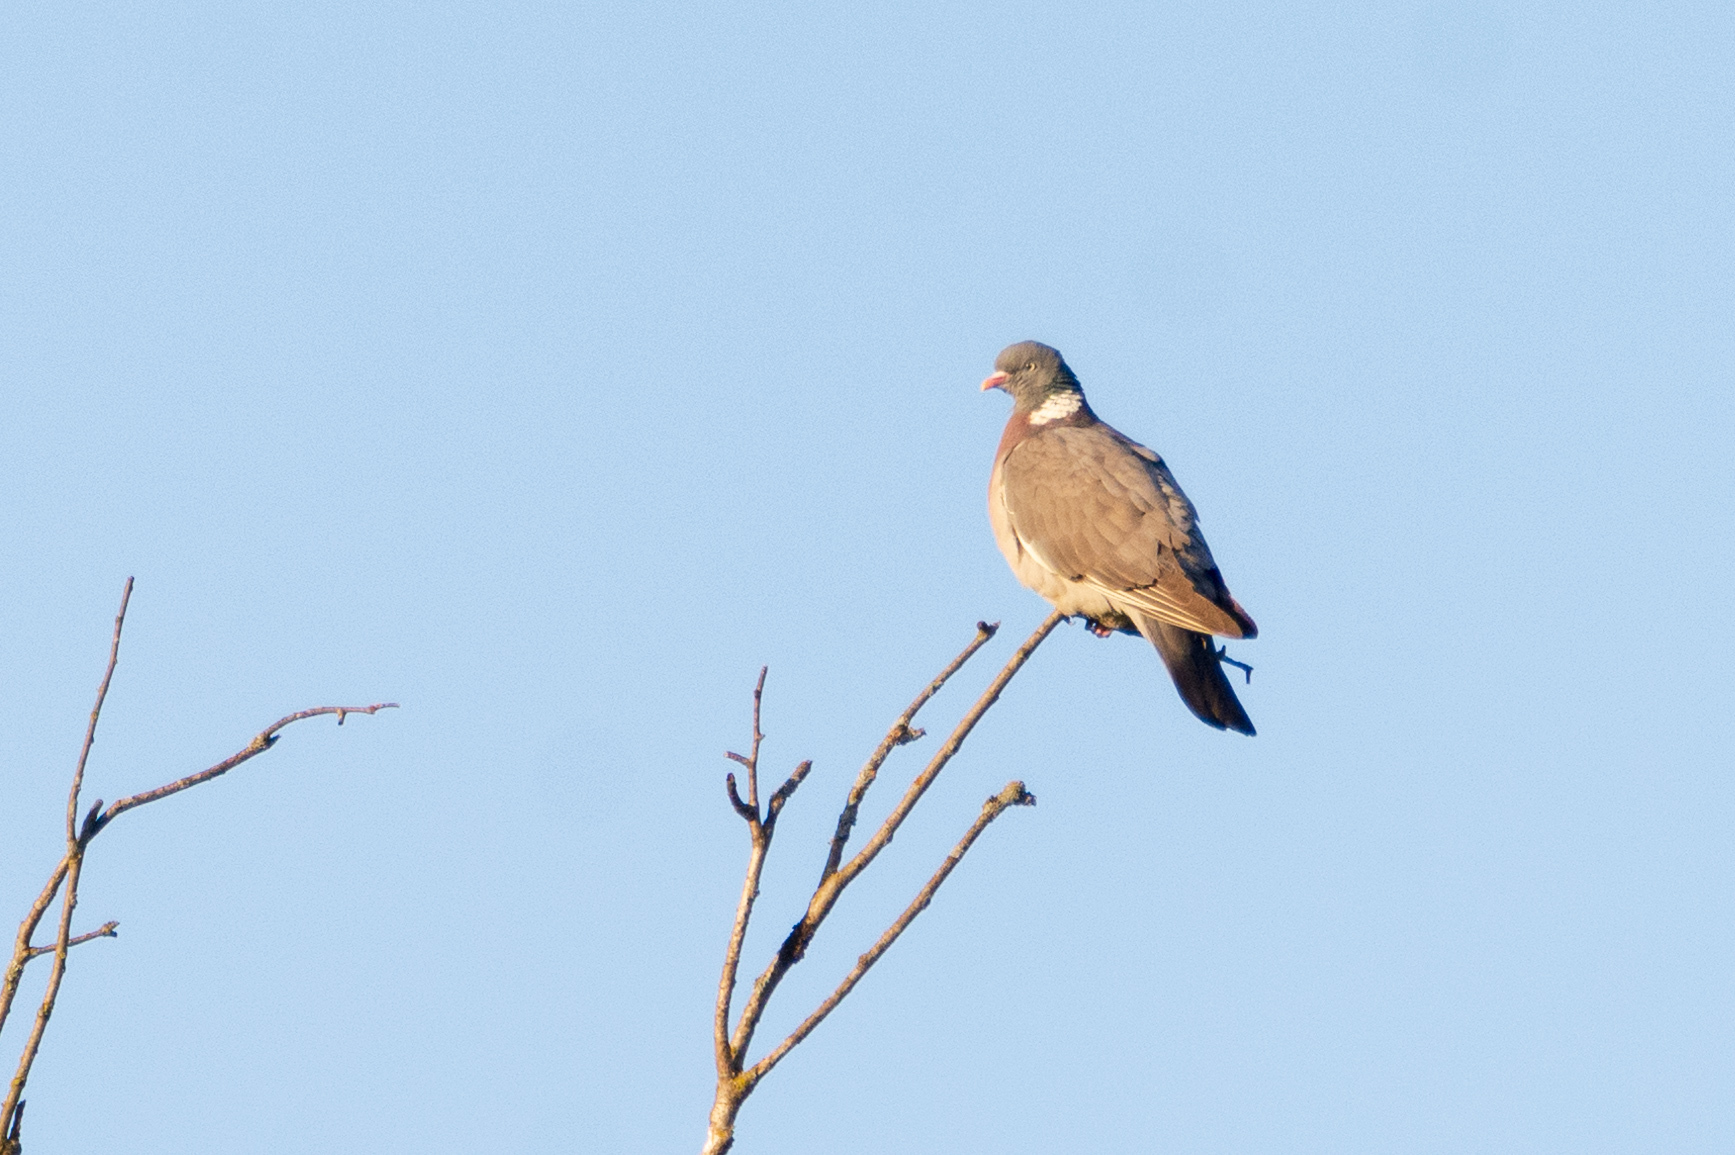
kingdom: Animalia
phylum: Chordata
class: Aves
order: Columbiformes
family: Columbidae
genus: Columba
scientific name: Columba palumbus
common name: Common wood pigeon
